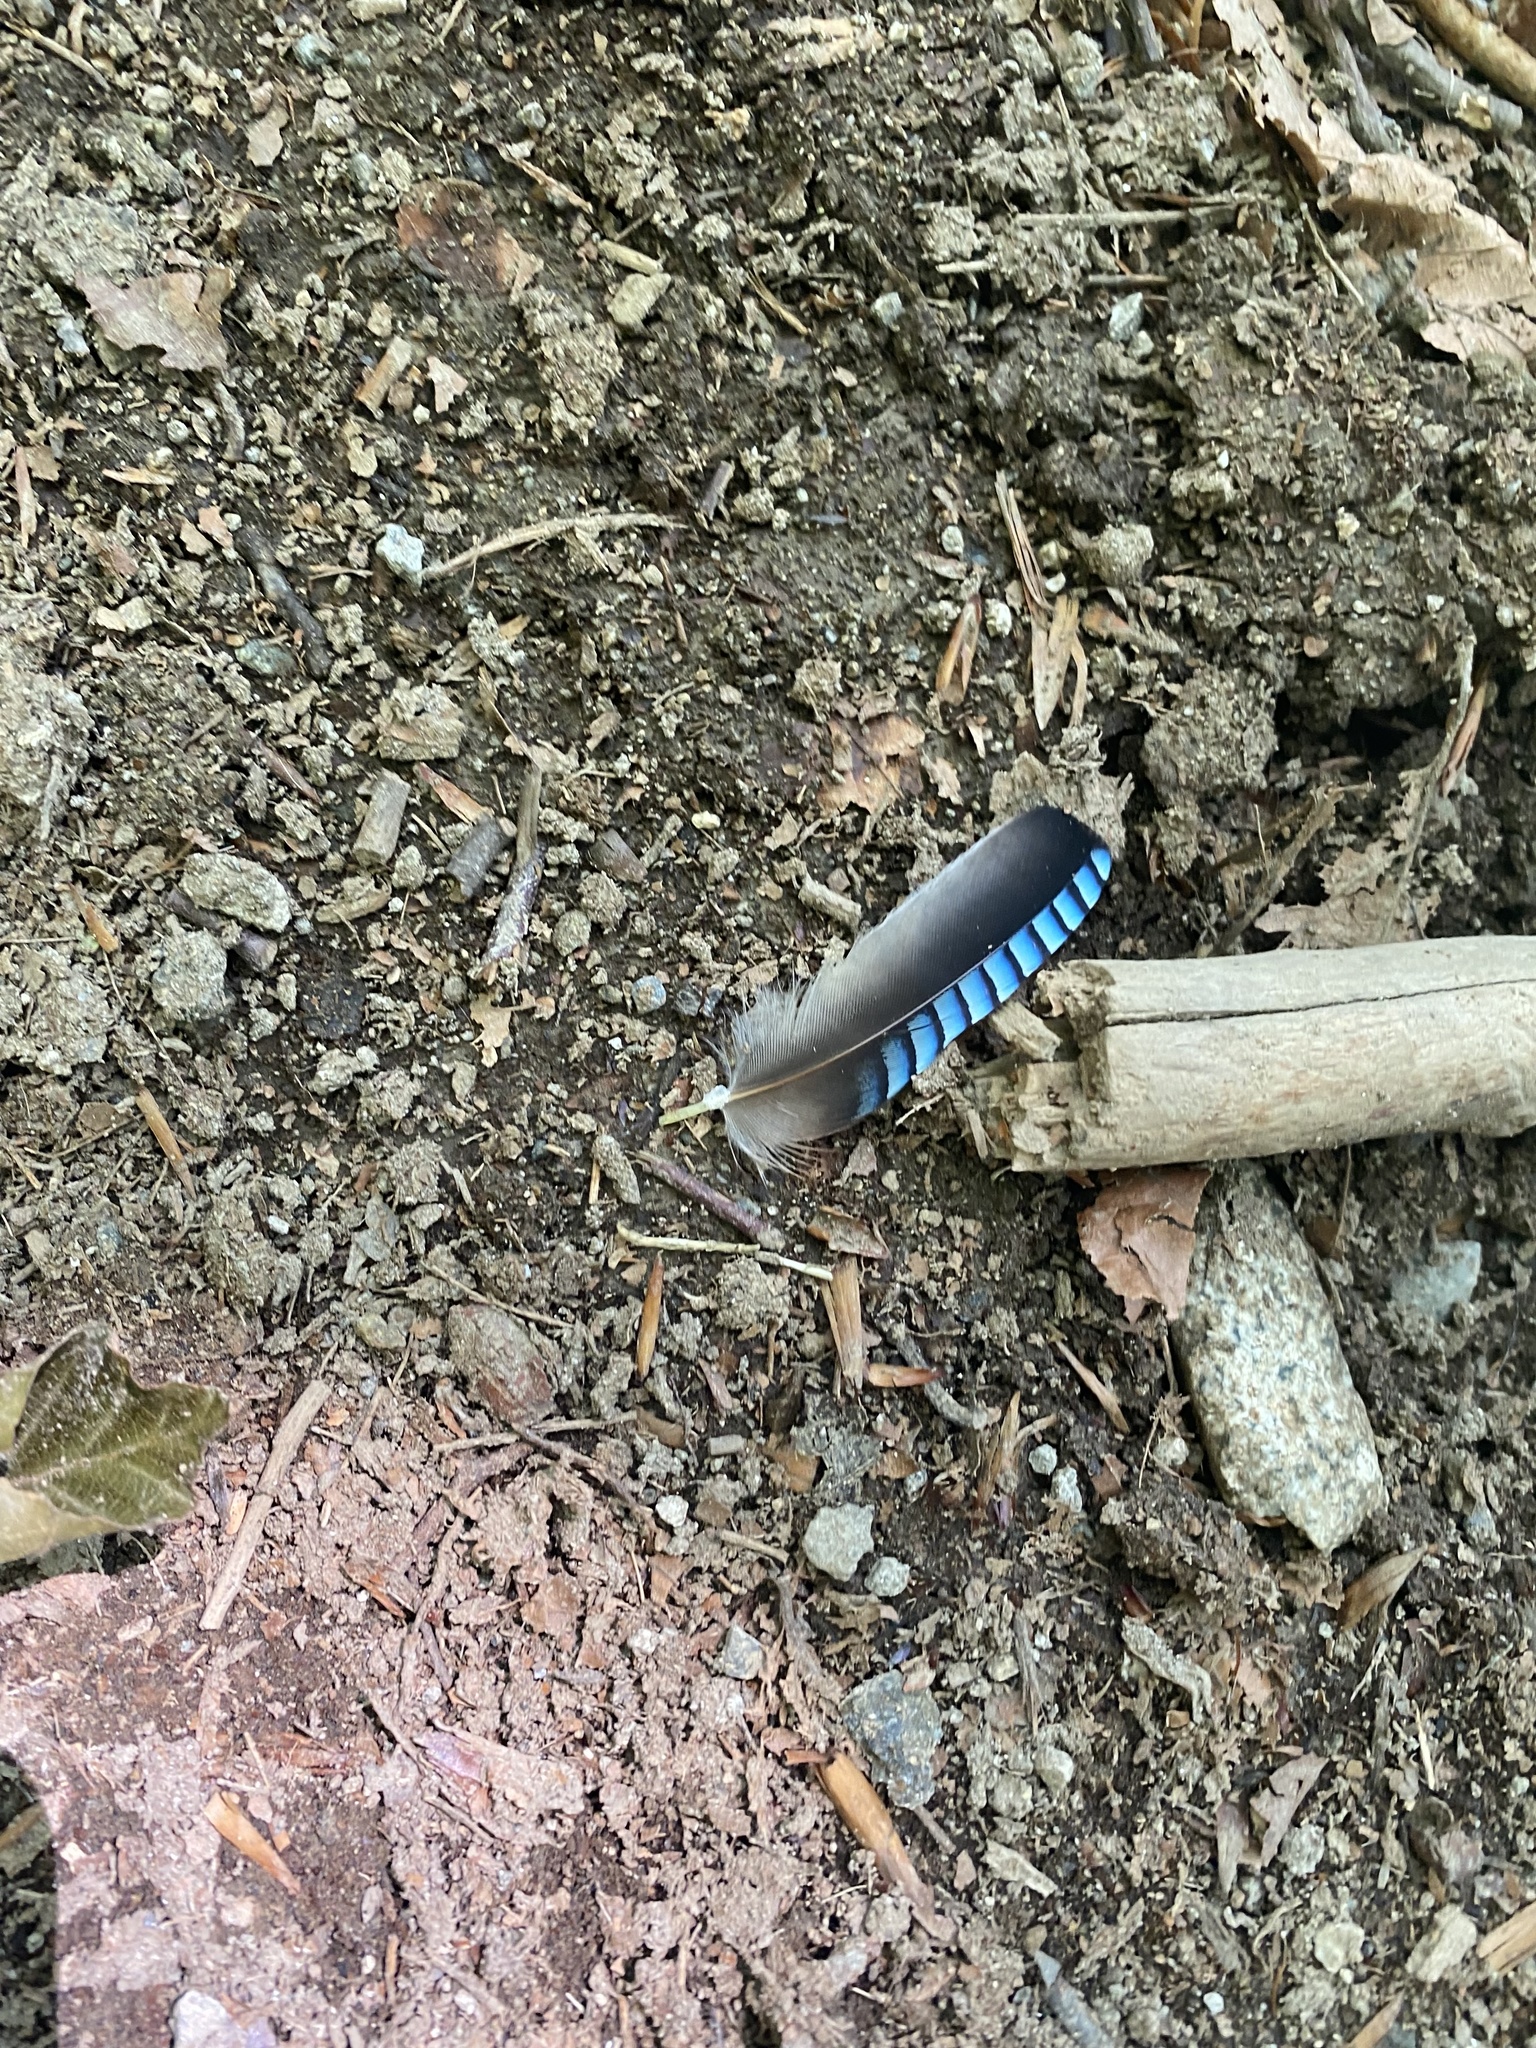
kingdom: Animalia
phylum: Chordata
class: Aves
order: Passeriformes
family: Corvidae
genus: Garrulus
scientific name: Garrulus glandarius
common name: Eurasian jay
